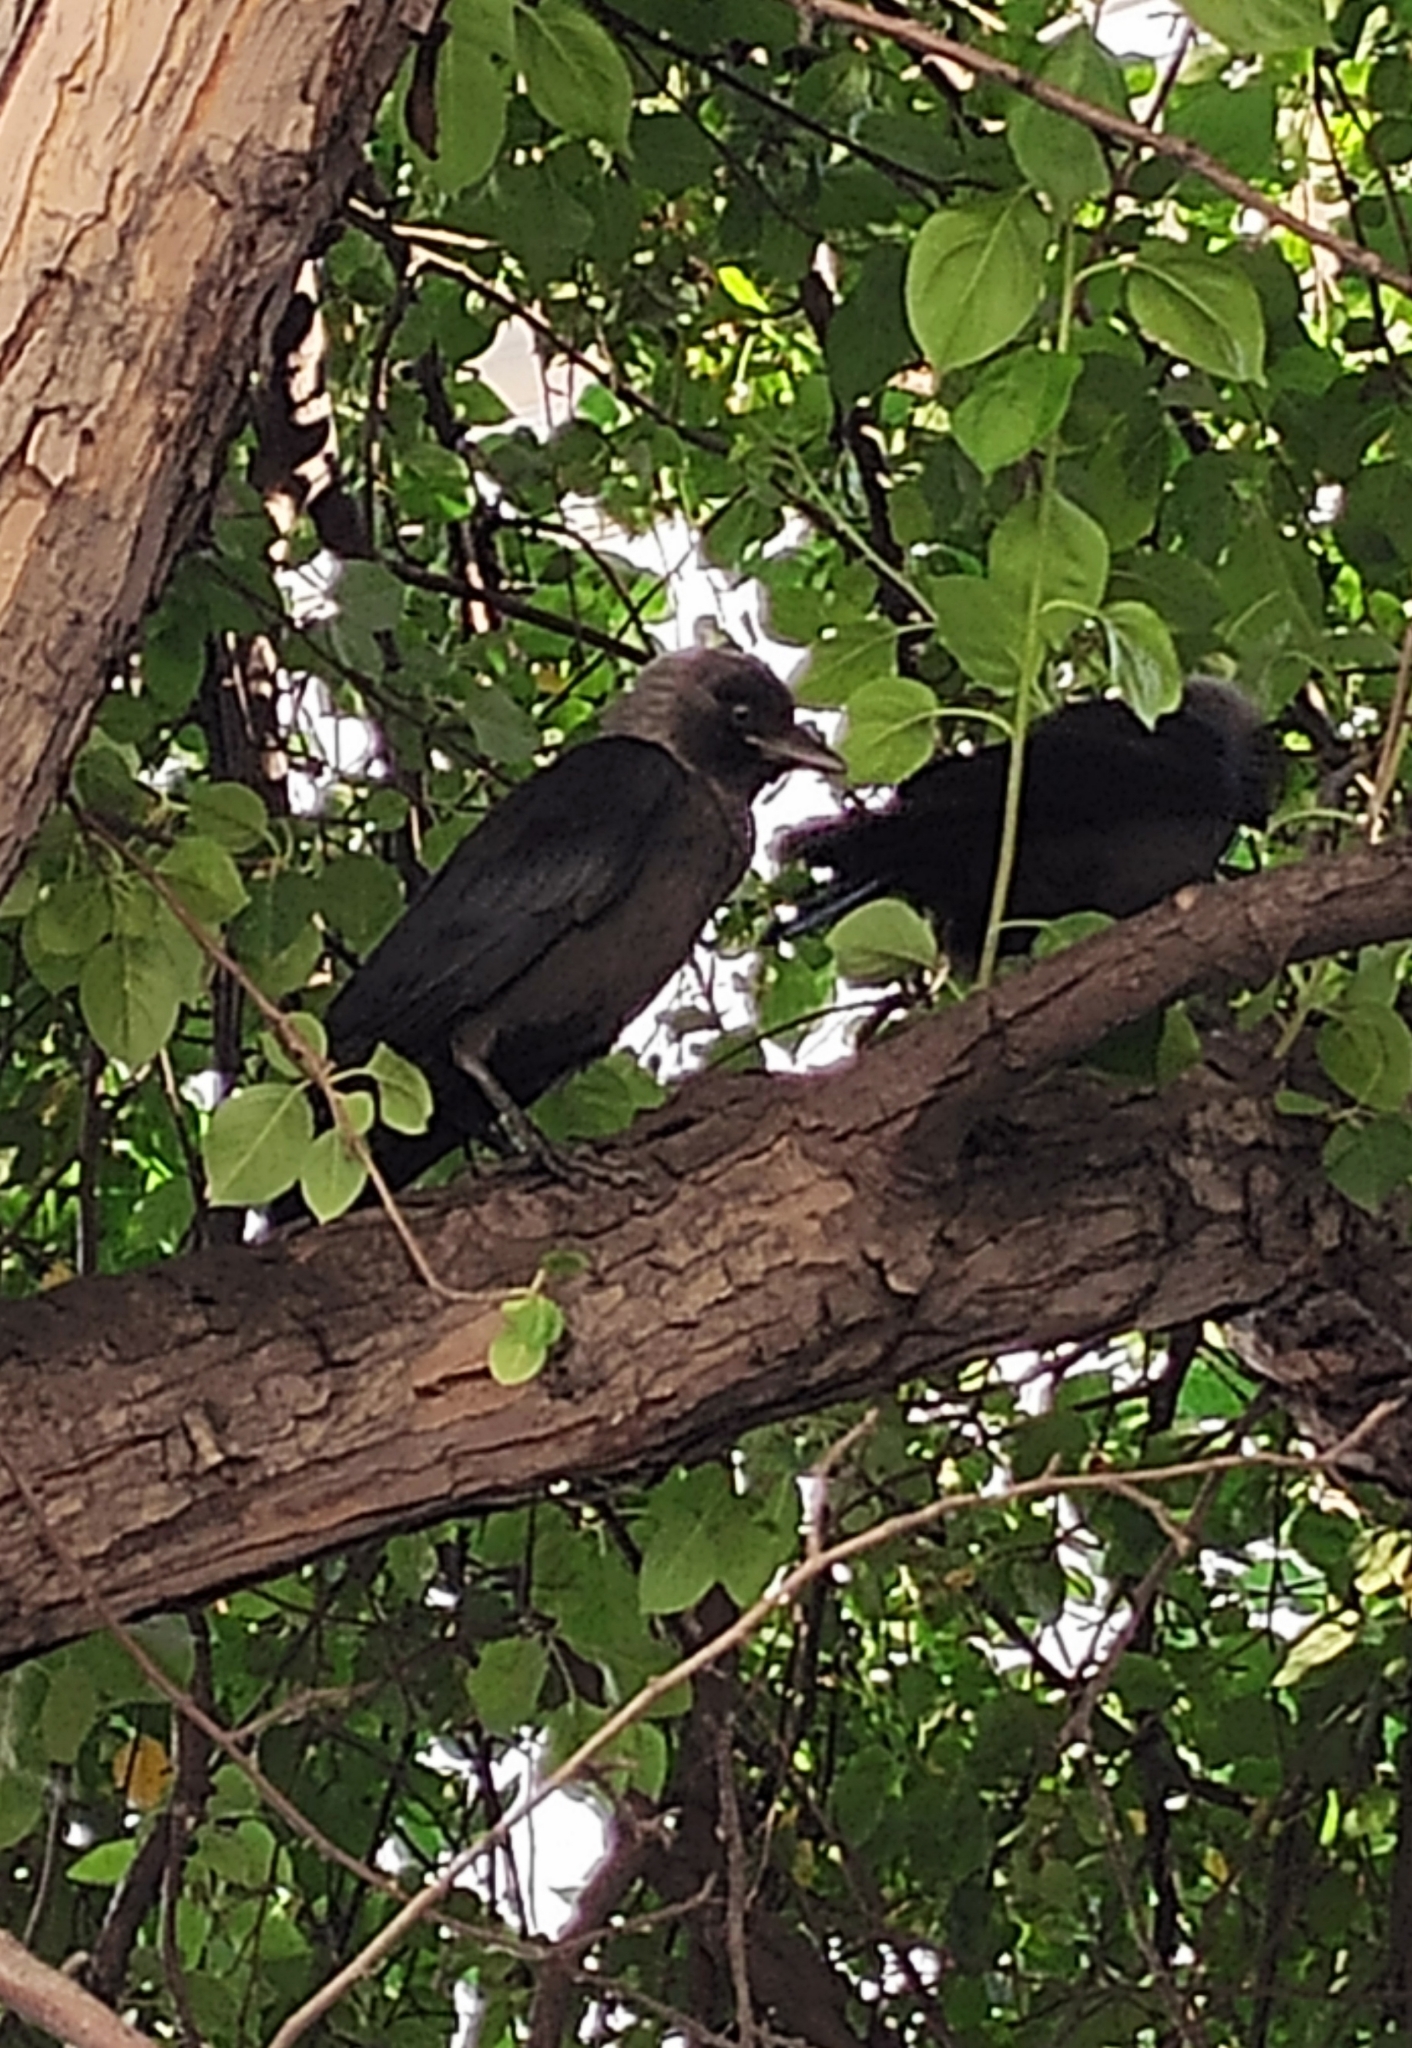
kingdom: Animalia
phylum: Chordata
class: Aves
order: Passeriformes
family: Corvidae
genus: Coloeus
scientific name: Coloeus monedula
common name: Western jackdaw
